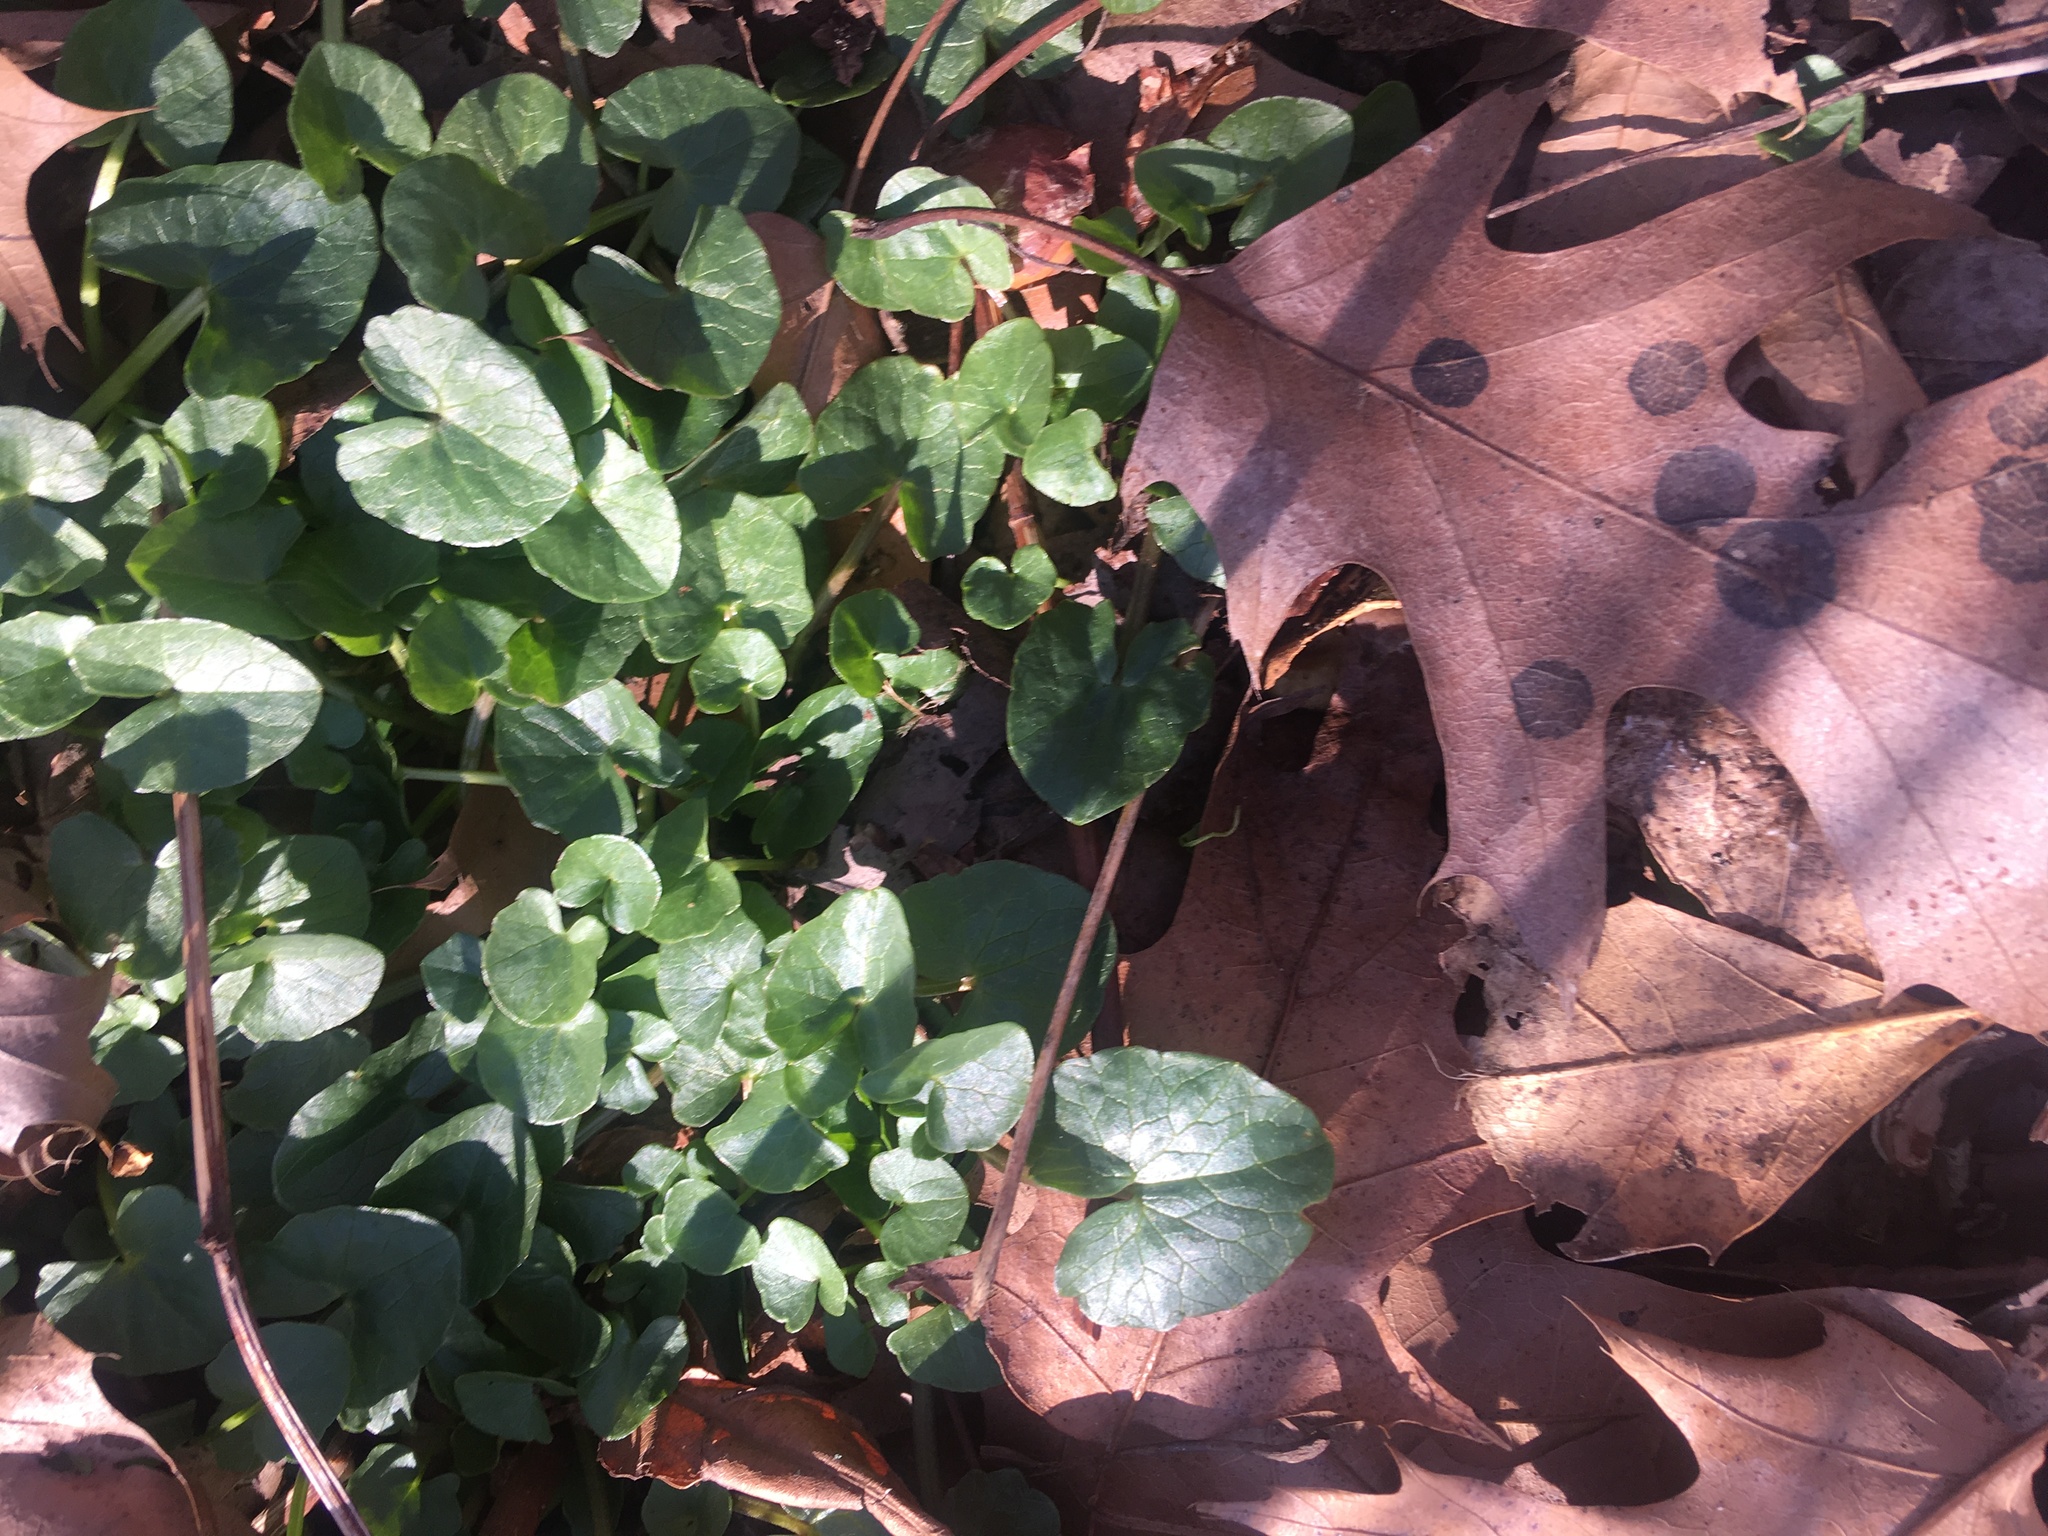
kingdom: Plantae
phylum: Tracheophyta
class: Magnoliopsida
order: Ranunculales
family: Ranunculaceae
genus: Ficaria
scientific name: Ficaria verna
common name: Lesser celandine
